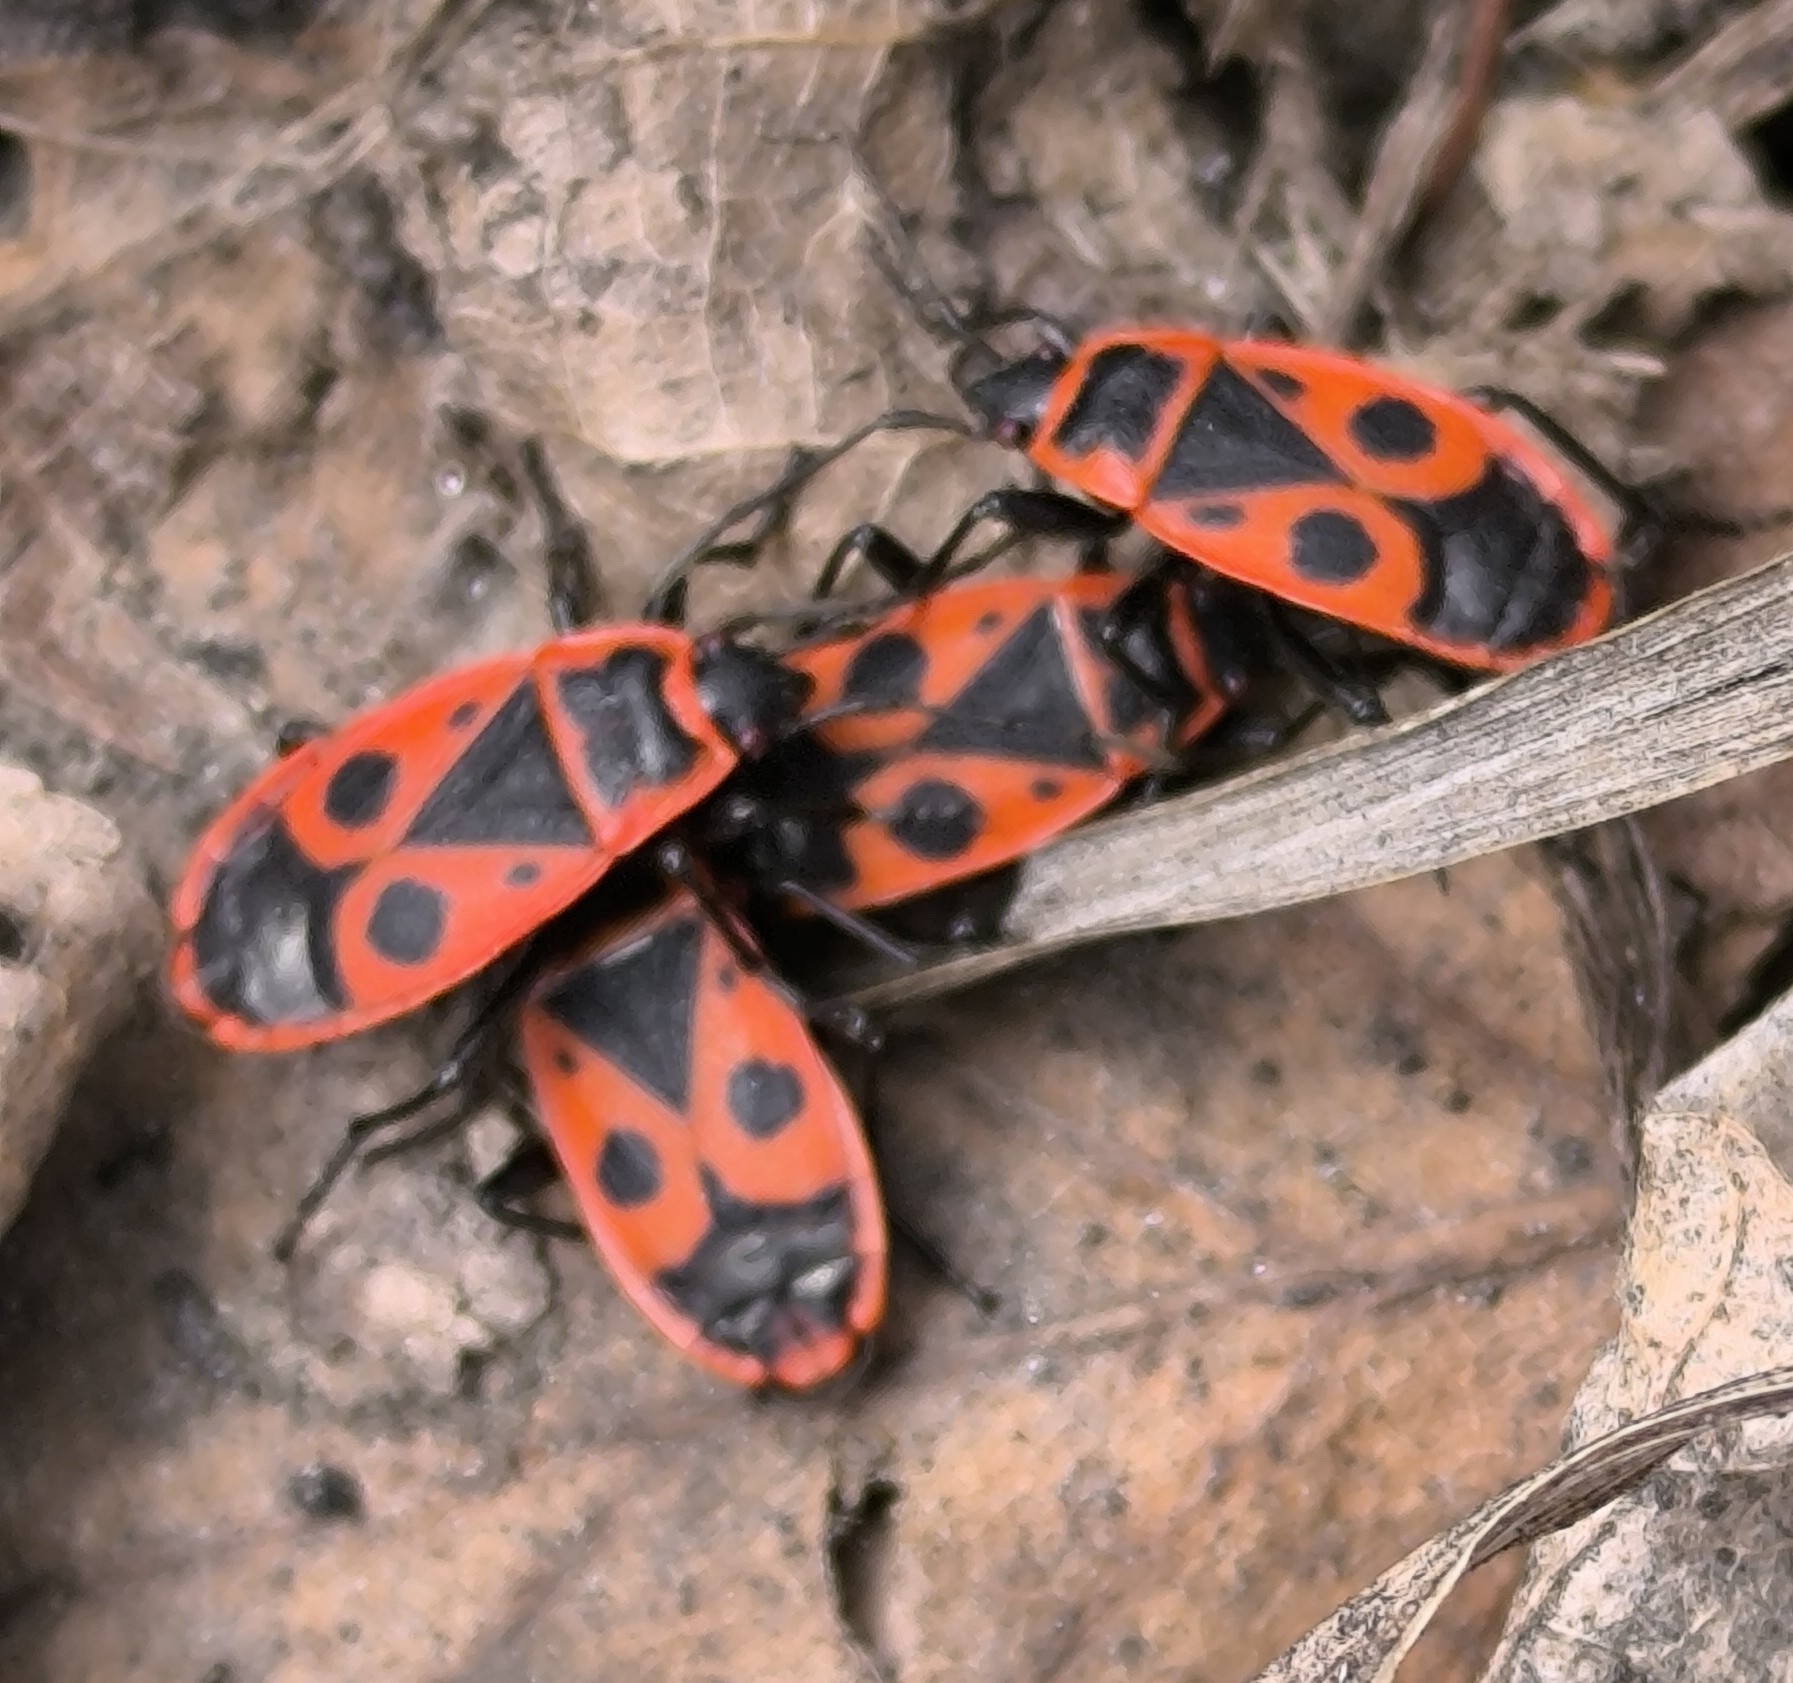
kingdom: Animalia
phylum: Arthropoda
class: Insecta
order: Hemiptera
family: Pyrrhocoridae
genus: Pyrrhocoris
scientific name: Pyrrhocoris apterus
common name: Firebug
